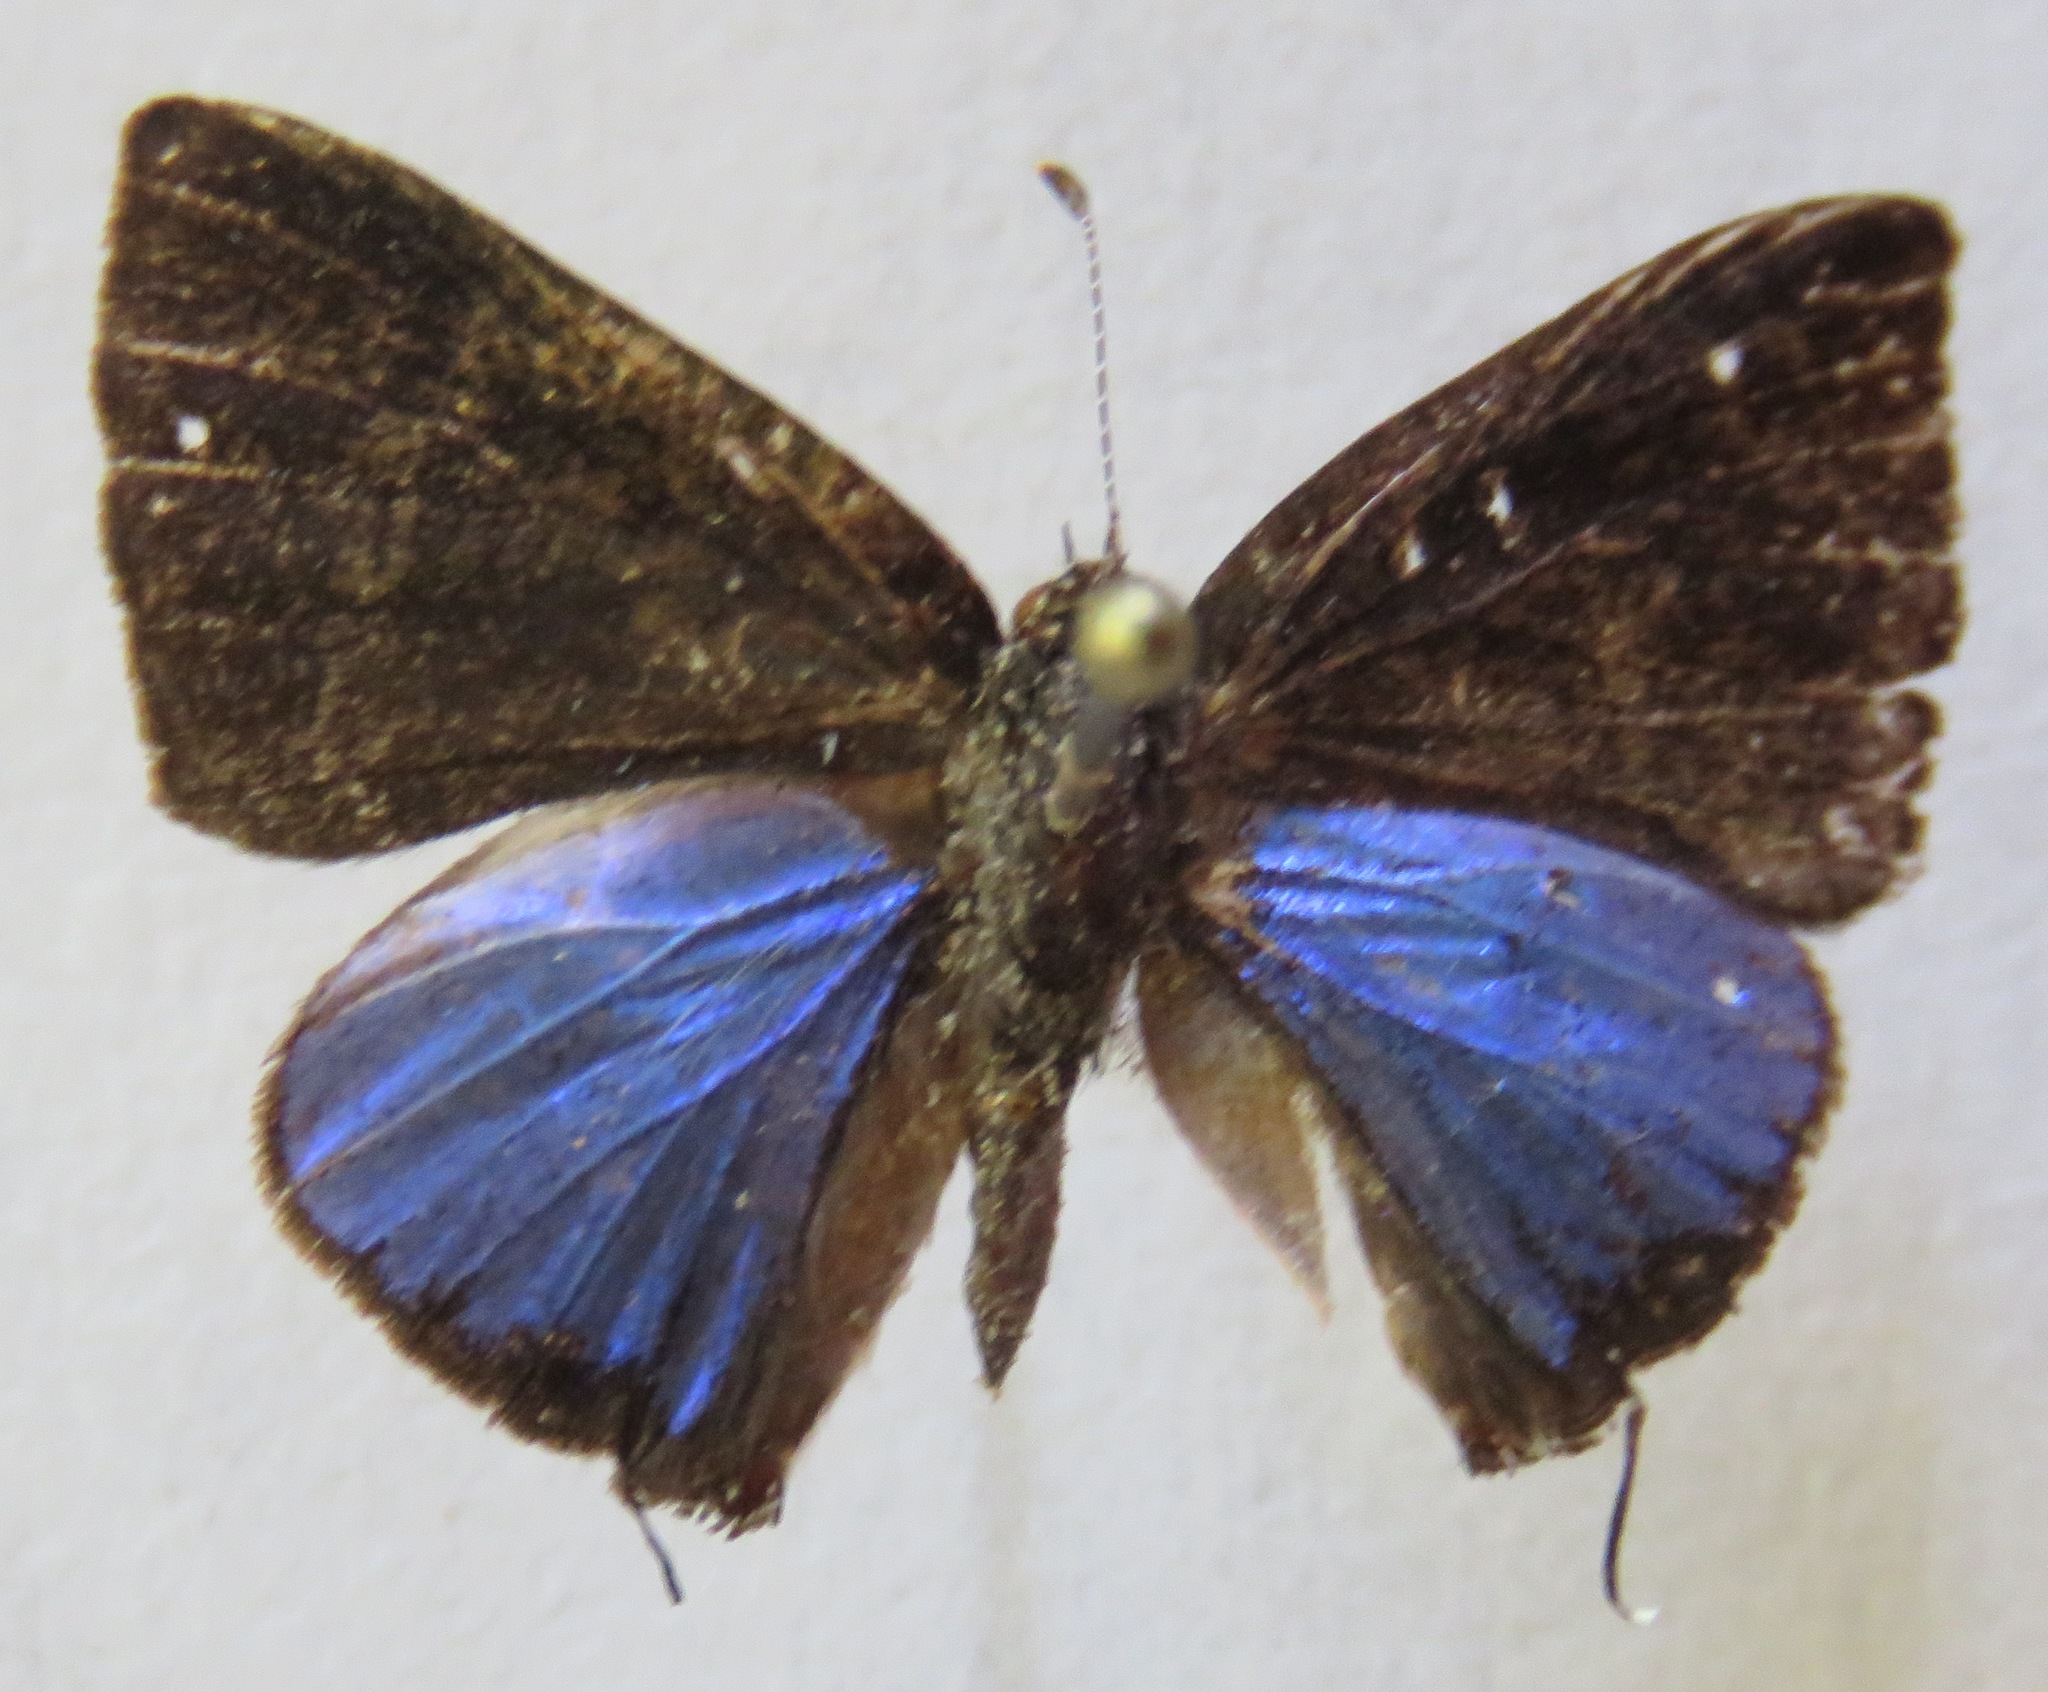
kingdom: Animalia
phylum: Arthropoda
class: Insecta
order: Lepidoptera
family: Lycaenidae
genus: Thecla
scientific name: Thecla demonassa
